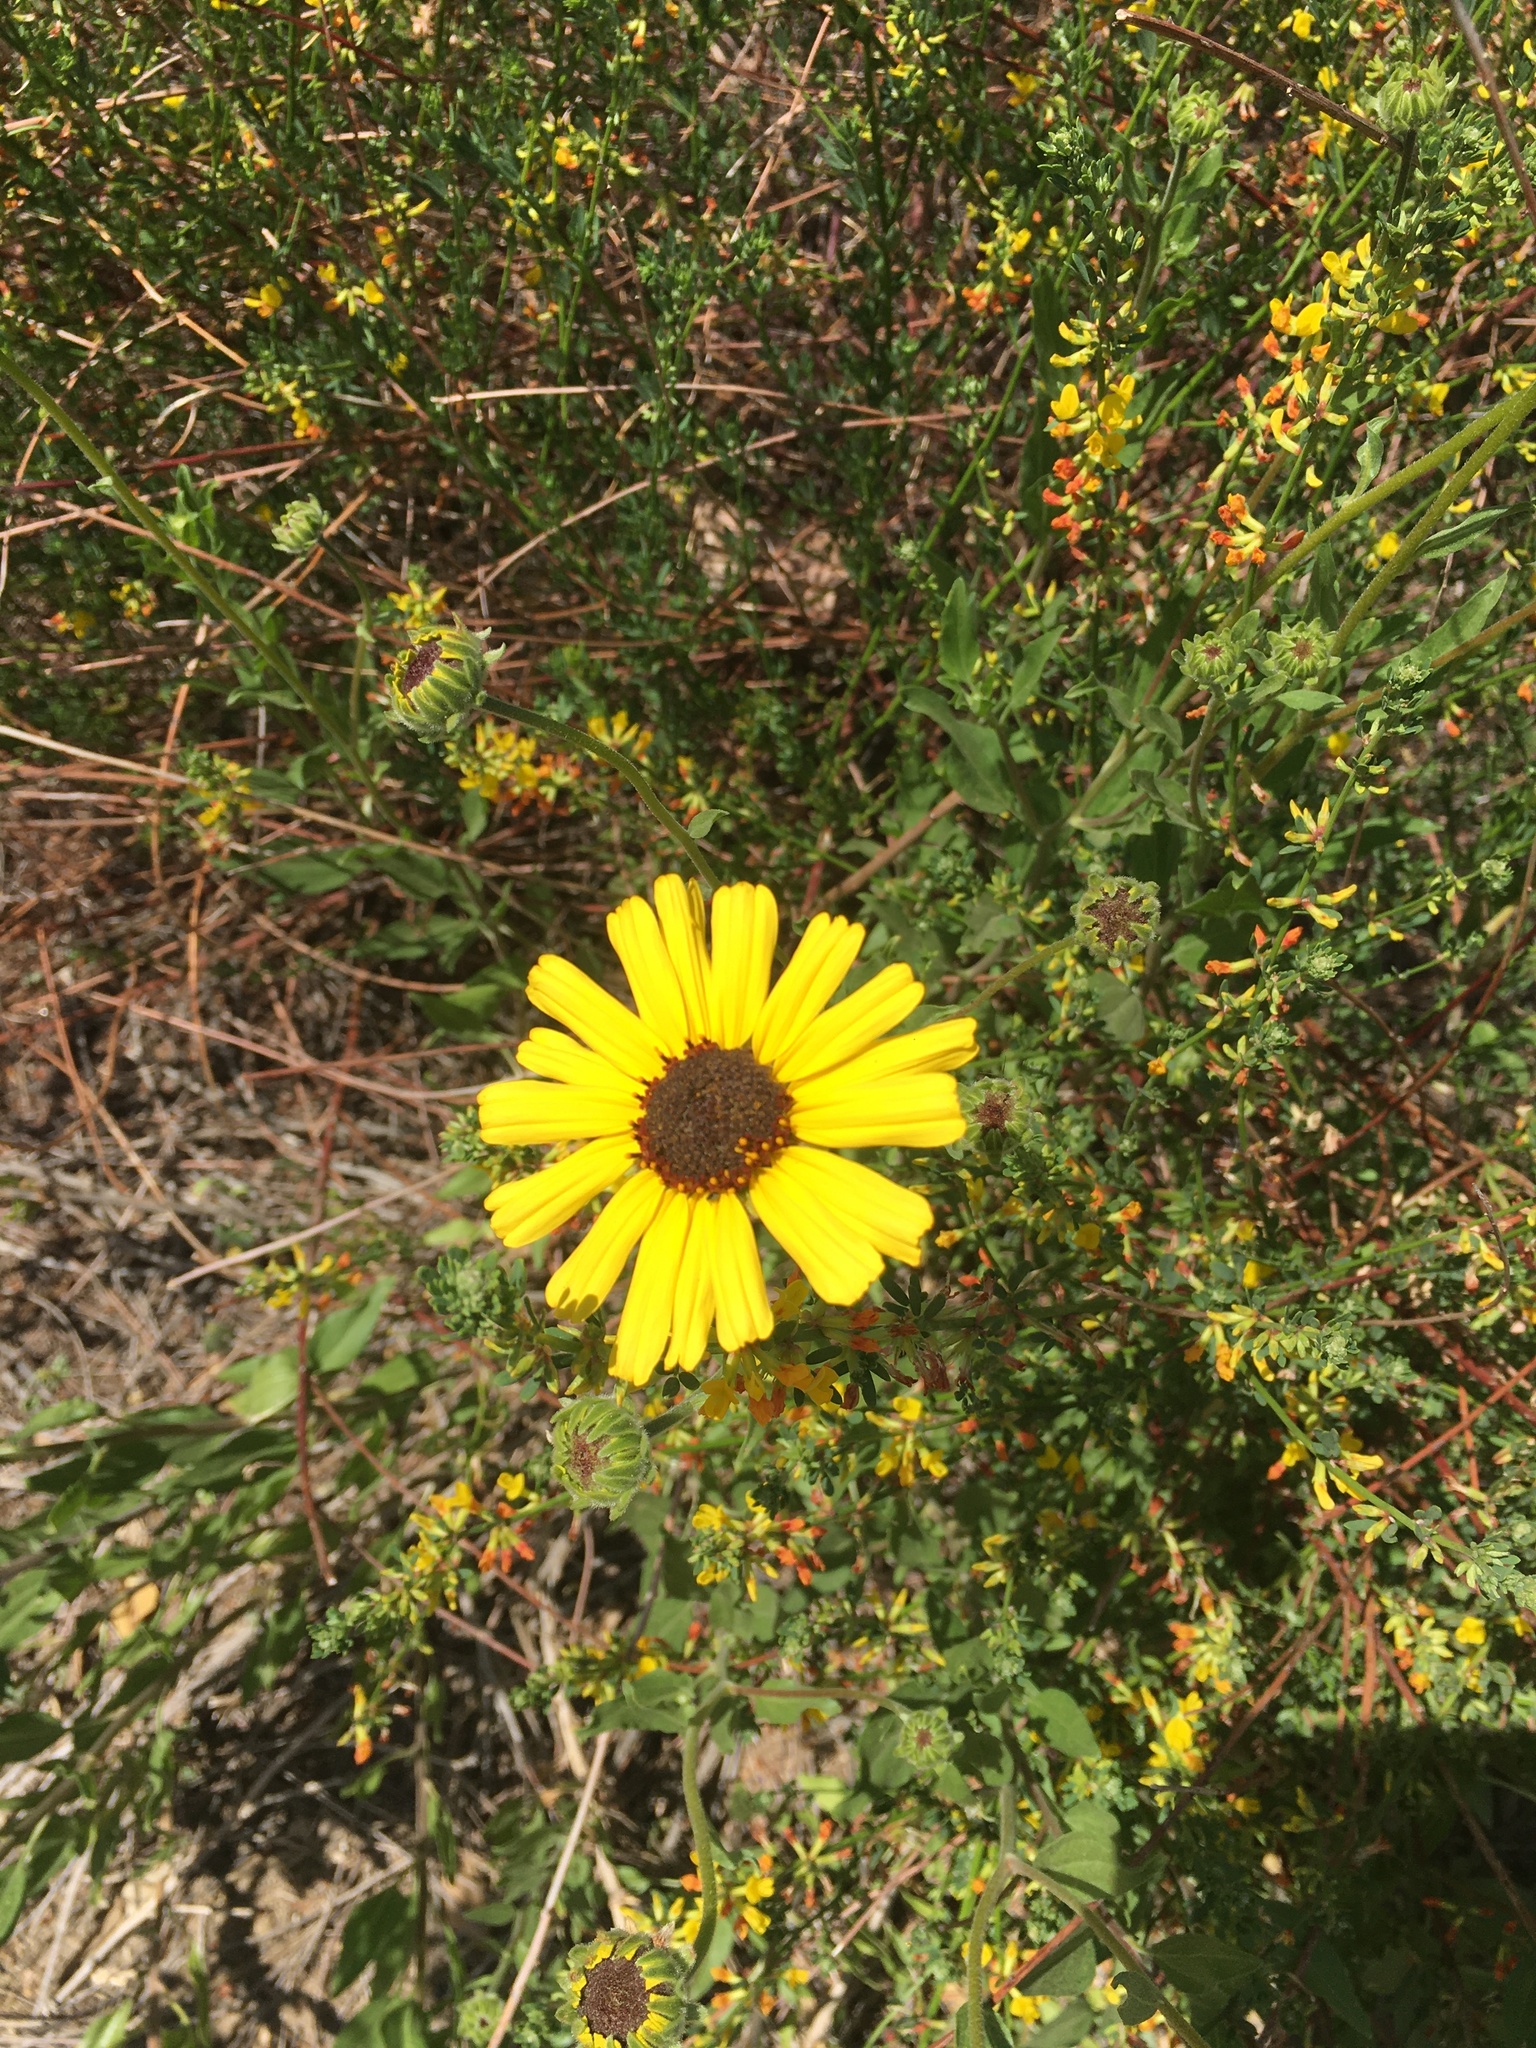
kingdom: Plantae
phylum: Tracheophyta
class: Magnoliopsida
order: Asterales
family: Asteraceae
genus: Encelia
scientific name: Encelia californica
